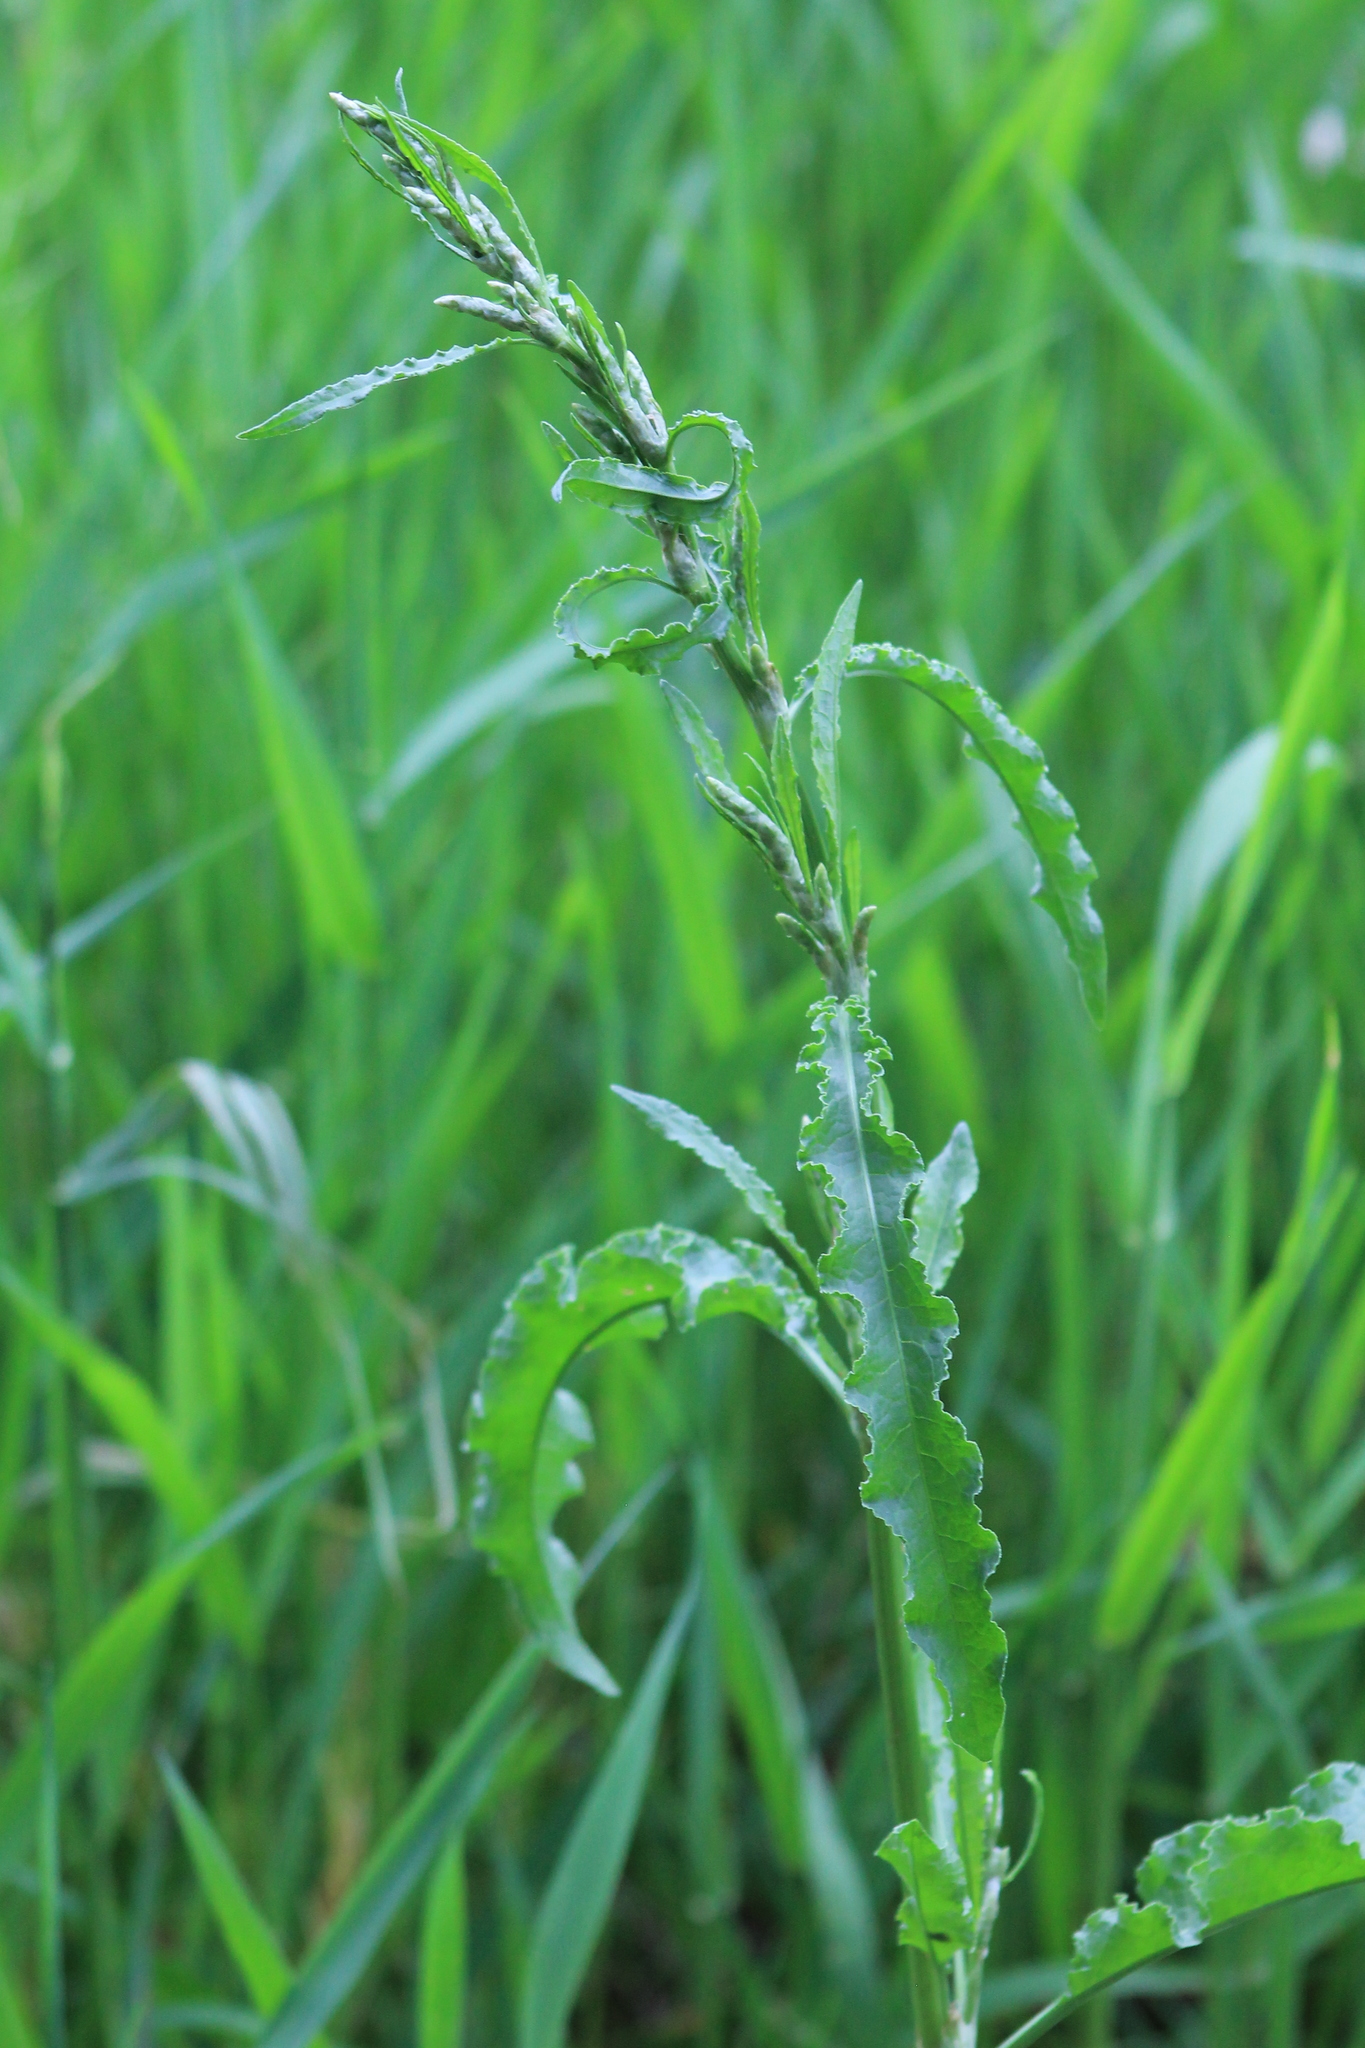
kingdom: Plantae
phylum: Tracheophyta
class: Magnoliopsida
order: Caryophyllales
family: Polygonaceae
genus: Rumex
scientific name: Rumex crispus
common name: Curled dock
